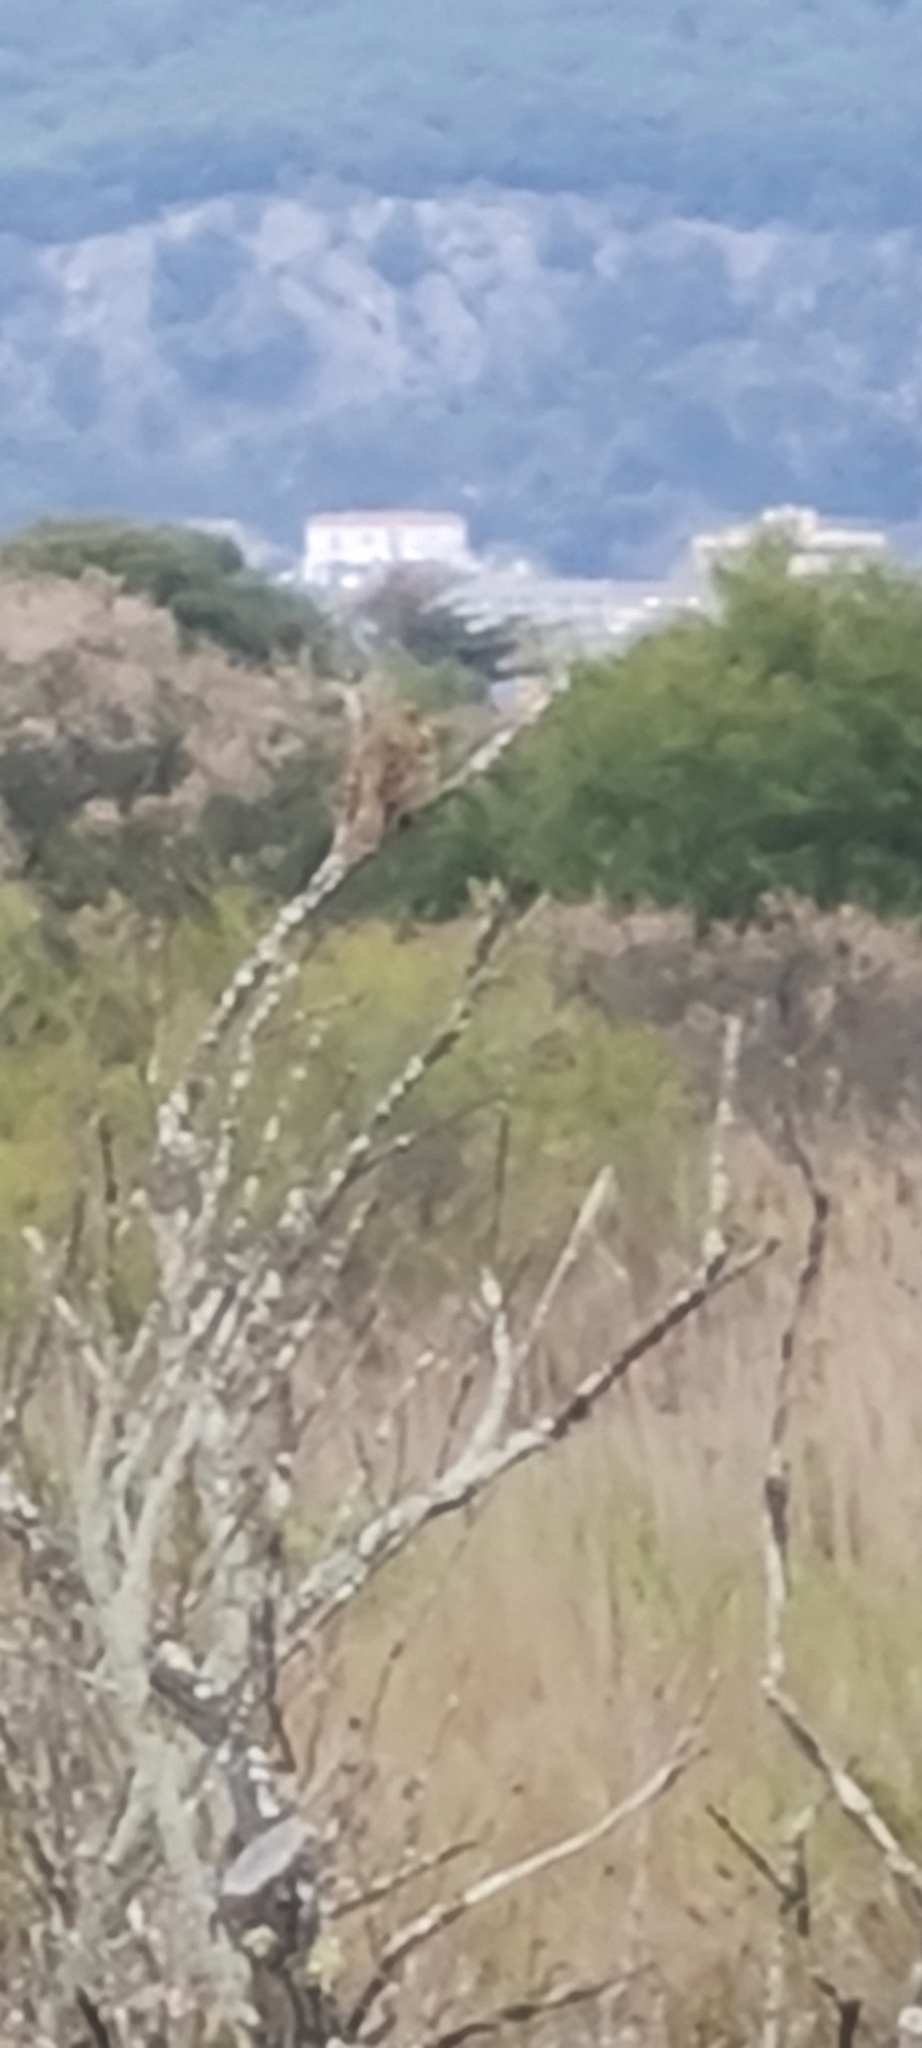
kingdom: Animalia
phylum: Chordata
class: Aves
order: Passeriformes
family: Emberizidae
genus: Emberiza
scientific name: Emberiza calandra
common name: Corn bunting
